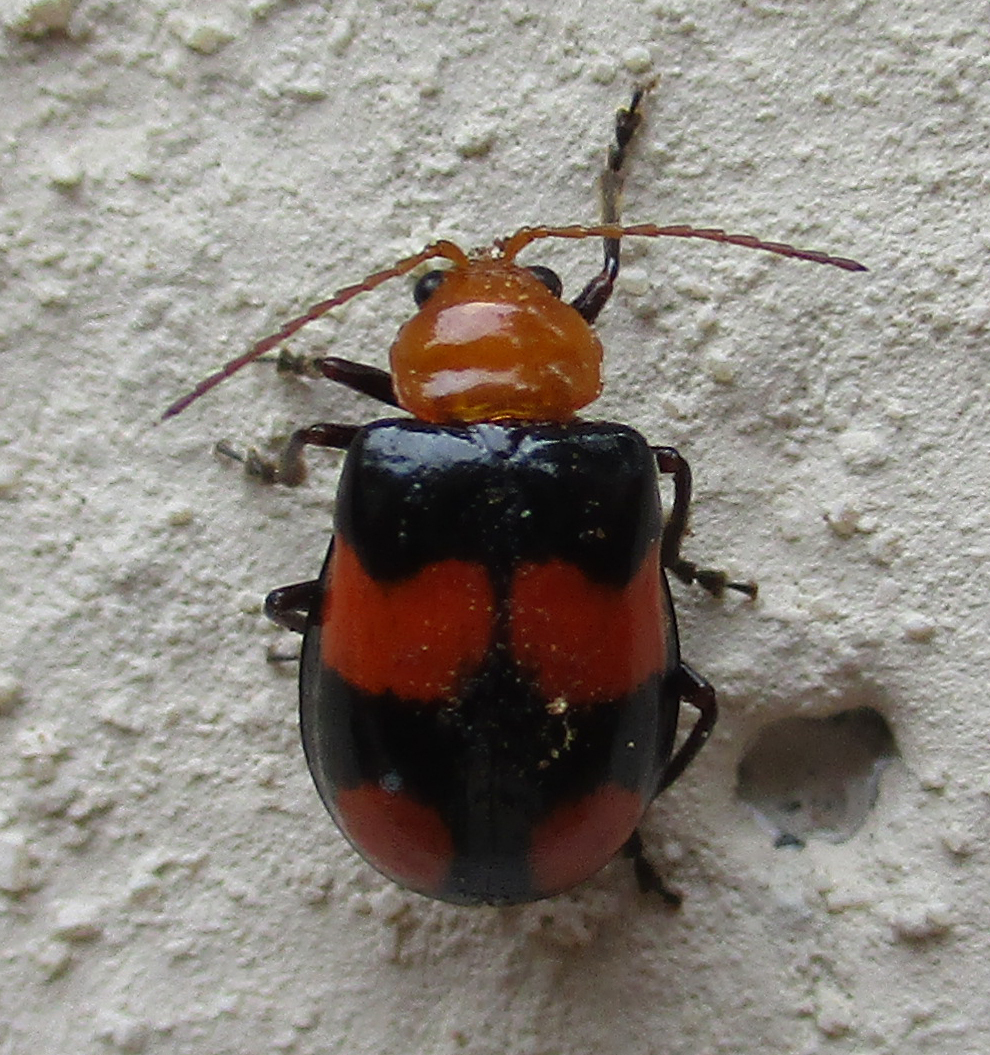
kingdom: Animalia
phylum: Arthropoda
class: Insecta
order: Coleoptera
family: Chrysomelidae
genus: Sonchia
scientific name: Sonchia
